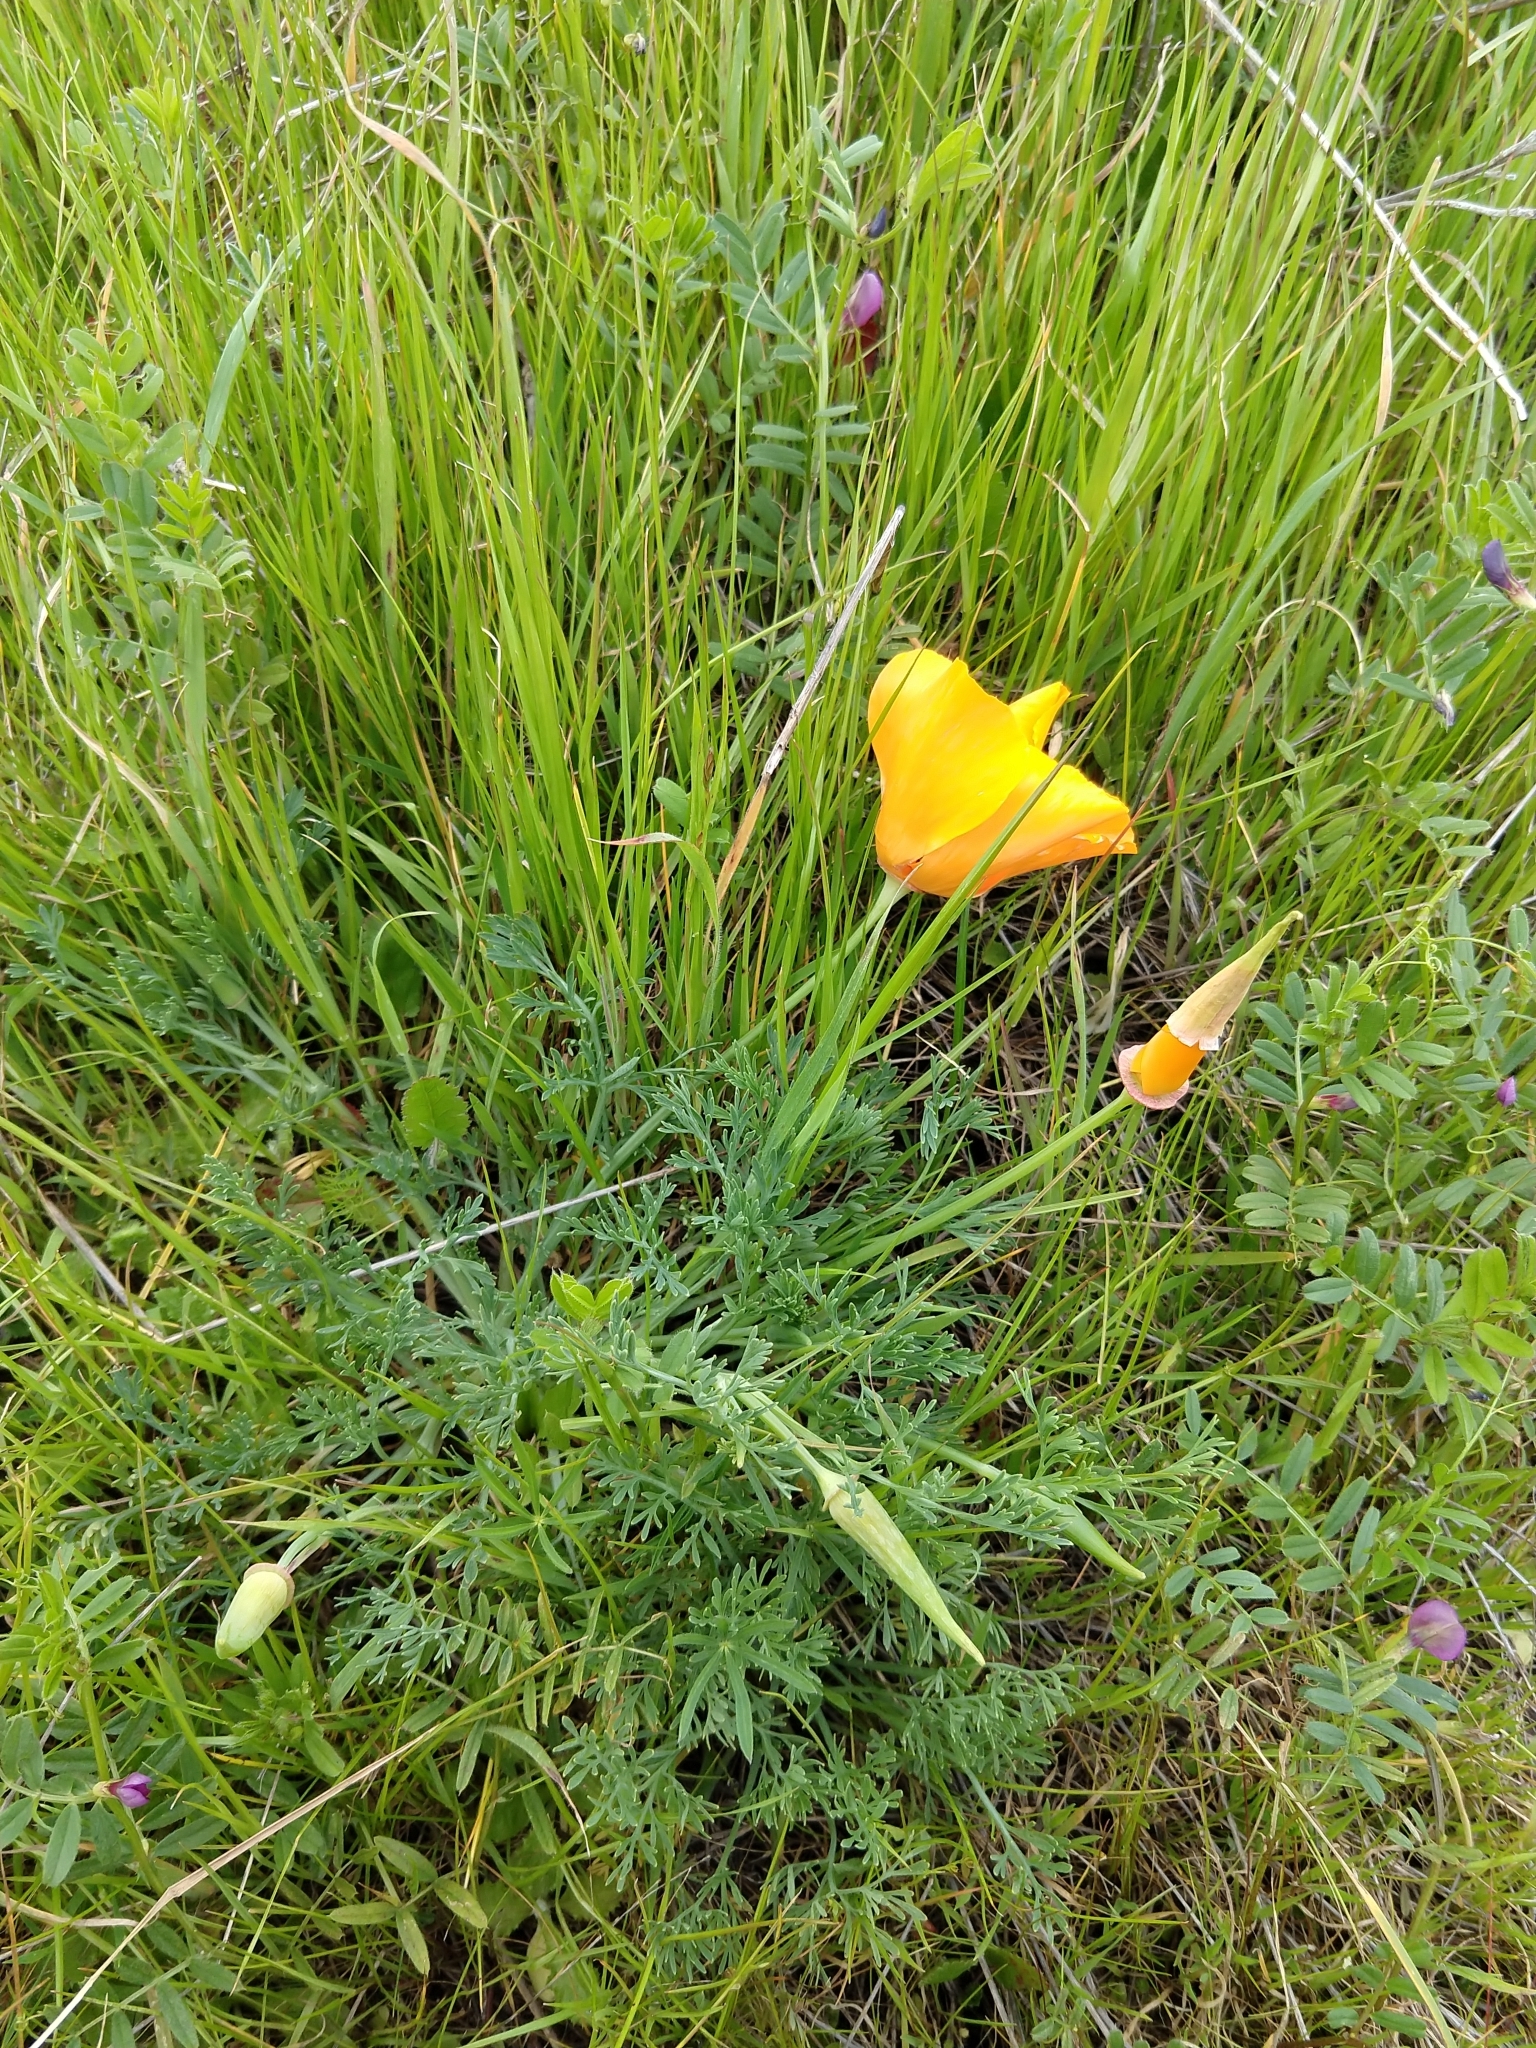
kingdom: Plantae
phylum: Tracheophyta
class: Magnoliopsida
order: Ranunculales
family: Papaveraceae
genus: Eschscholzia
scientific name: Eschscholzia californica
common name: California poppy
